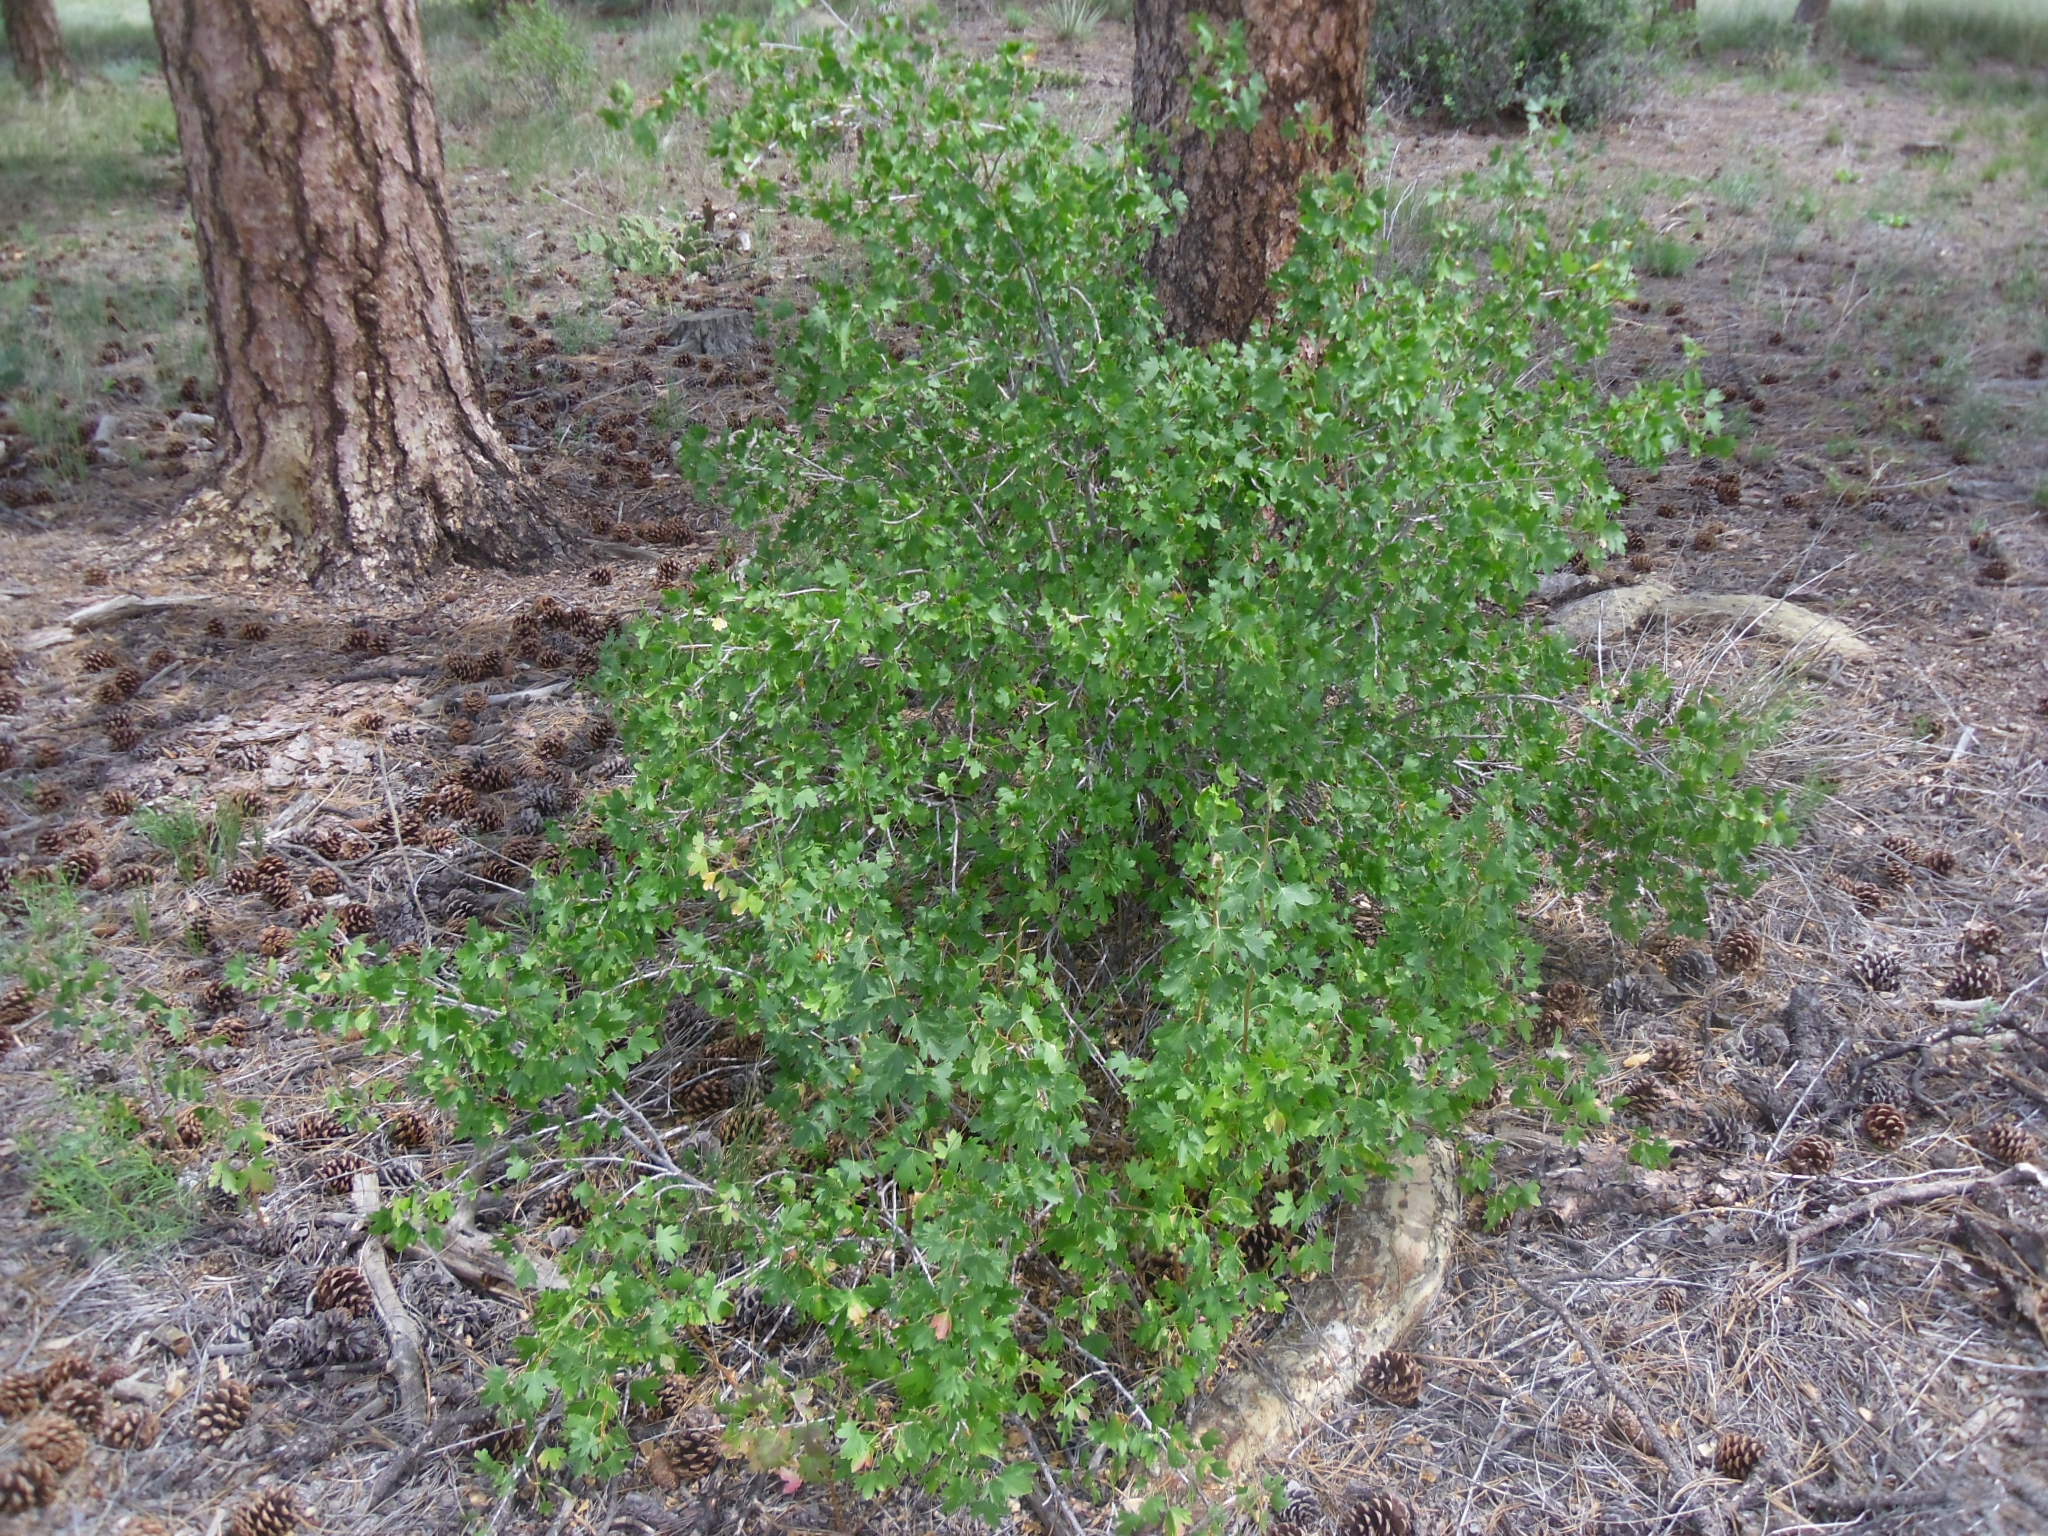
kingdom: Plantae
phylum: Tracheophyta
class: Magnoliopsida
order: Saxifragales
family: Grossulariaceae
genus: Ribes
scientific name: Ribes aureum
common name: Golden currant
